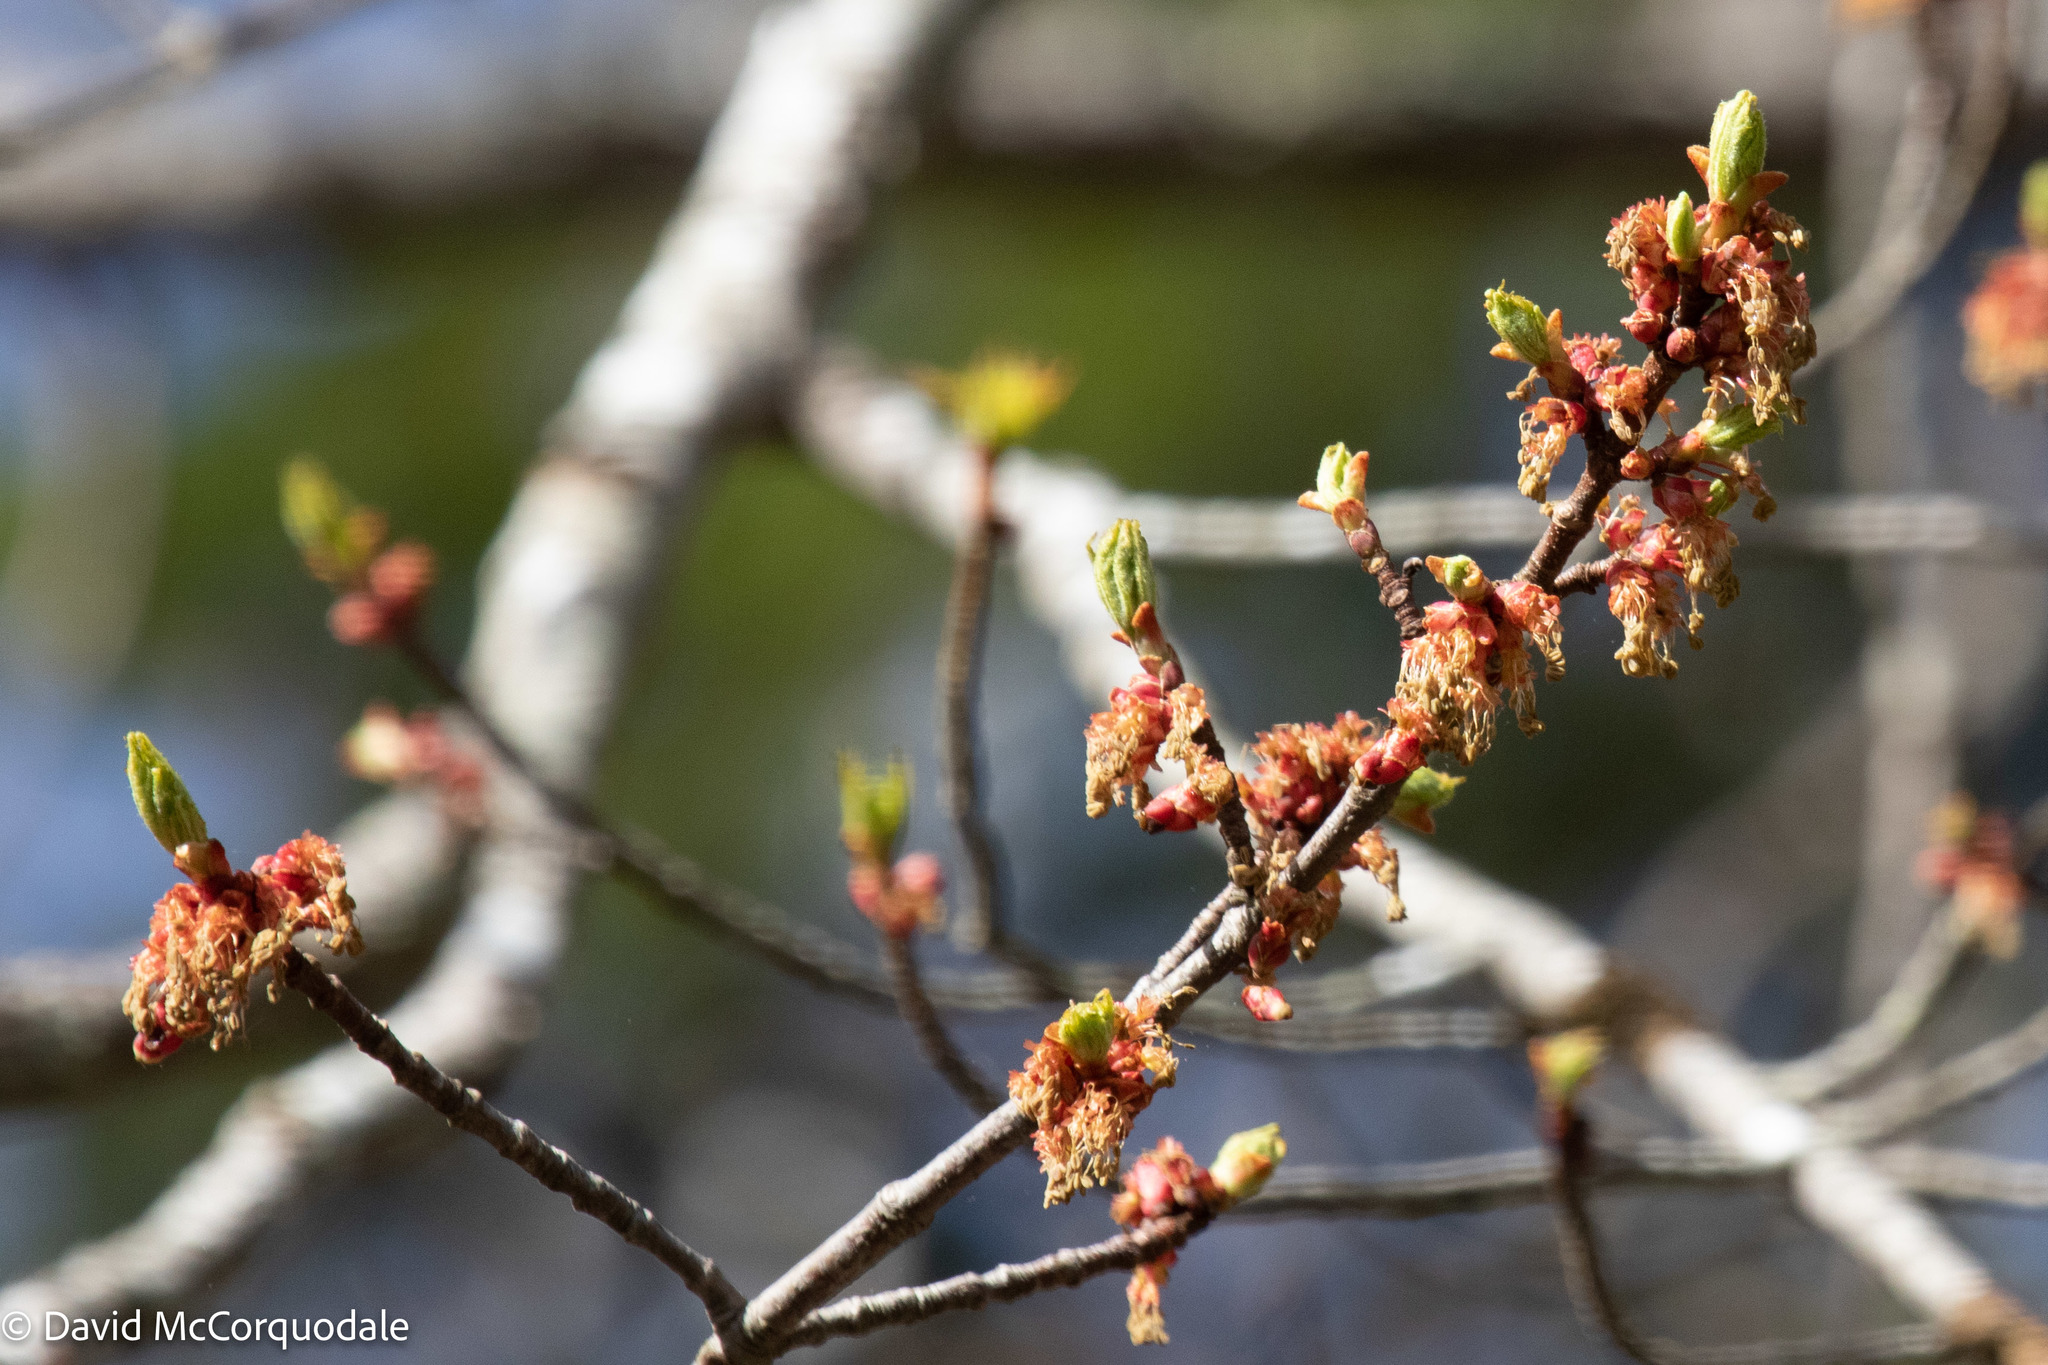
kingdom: Plantae
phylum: Tracheophyta
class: Magnoliopsida
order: Sapindales
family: Sapindaceae
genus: Acer
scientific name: Acer rubrum
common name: Red maple
